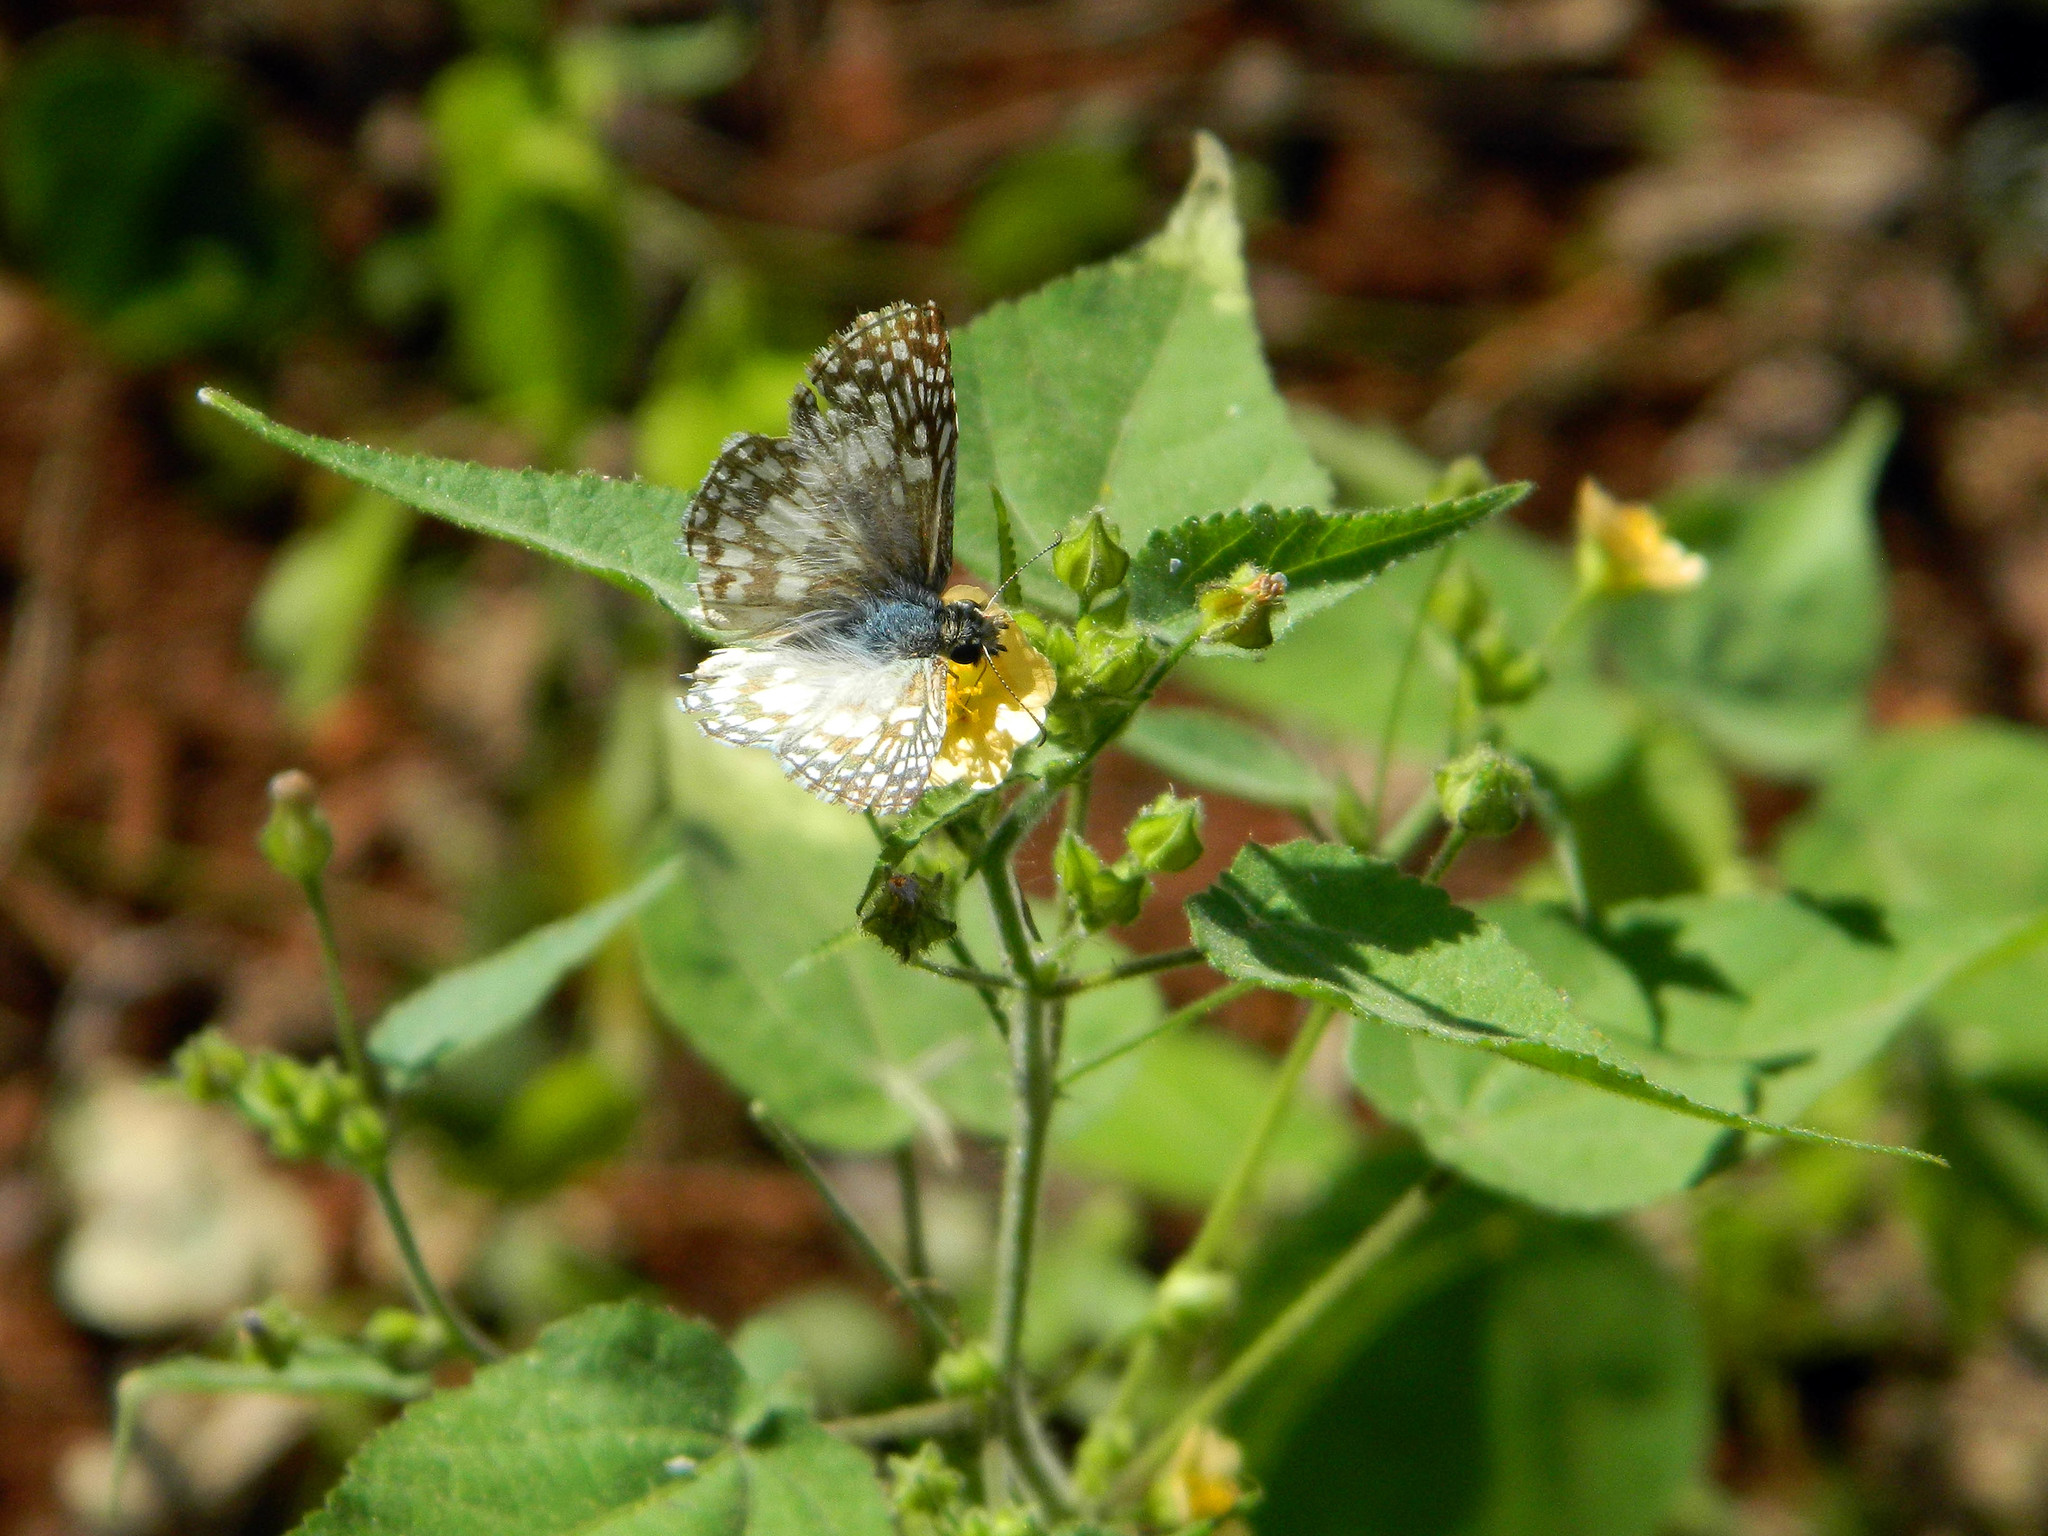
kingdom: Animalia
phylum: Arthropoda
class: Insecta
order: Lepidoptera
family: Hesperiidae
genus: Pyrgus
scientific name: Pyrgus oileus
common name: Tropical checkered-skipper
